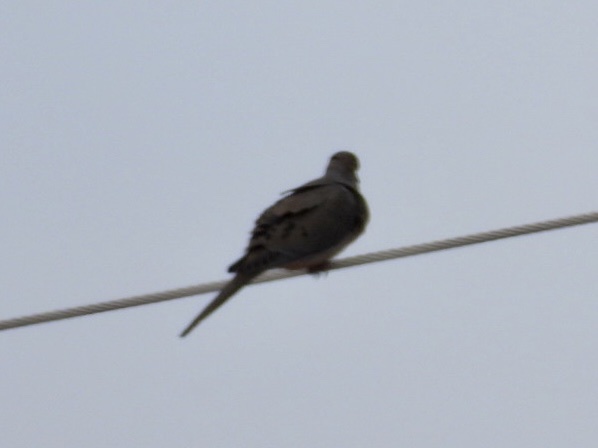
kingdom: Animalia
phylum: Chordata
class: Aves
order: Columbiformes
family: Columbidae
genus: Zenaida
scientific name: Zenaida macroura
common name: Mourning dove
